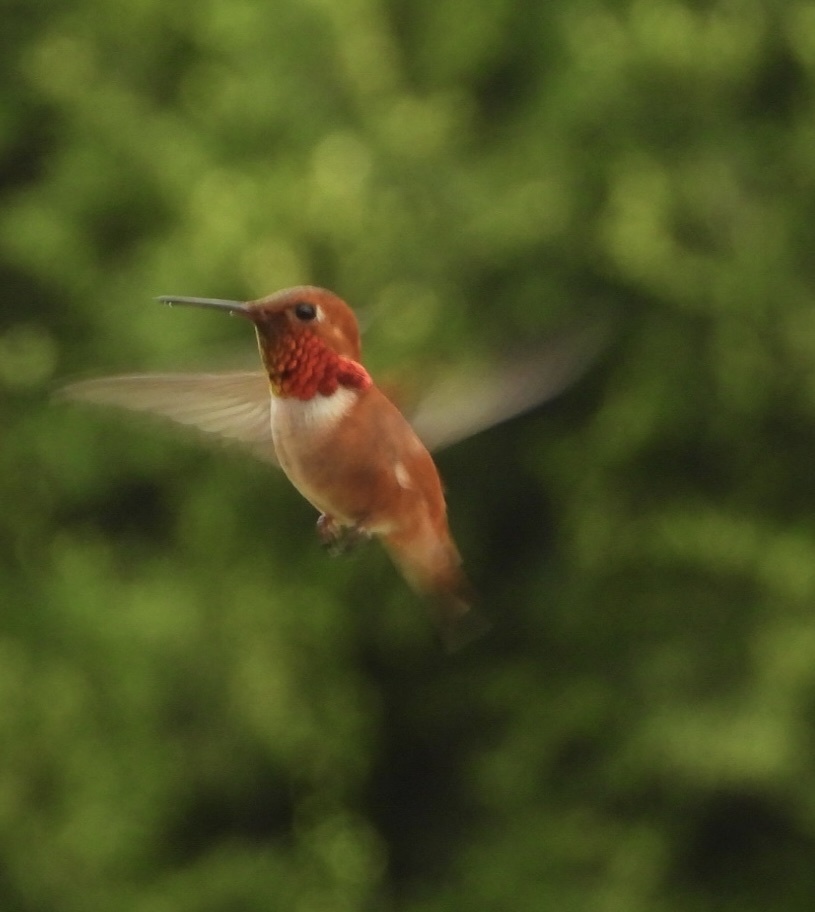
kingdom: Animalia
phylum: Chordata
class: Aves
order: Apodiformes
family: Trochilidae
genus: Selasphorus
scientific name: Selasphorus rufus
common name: Rufous hummingbird
